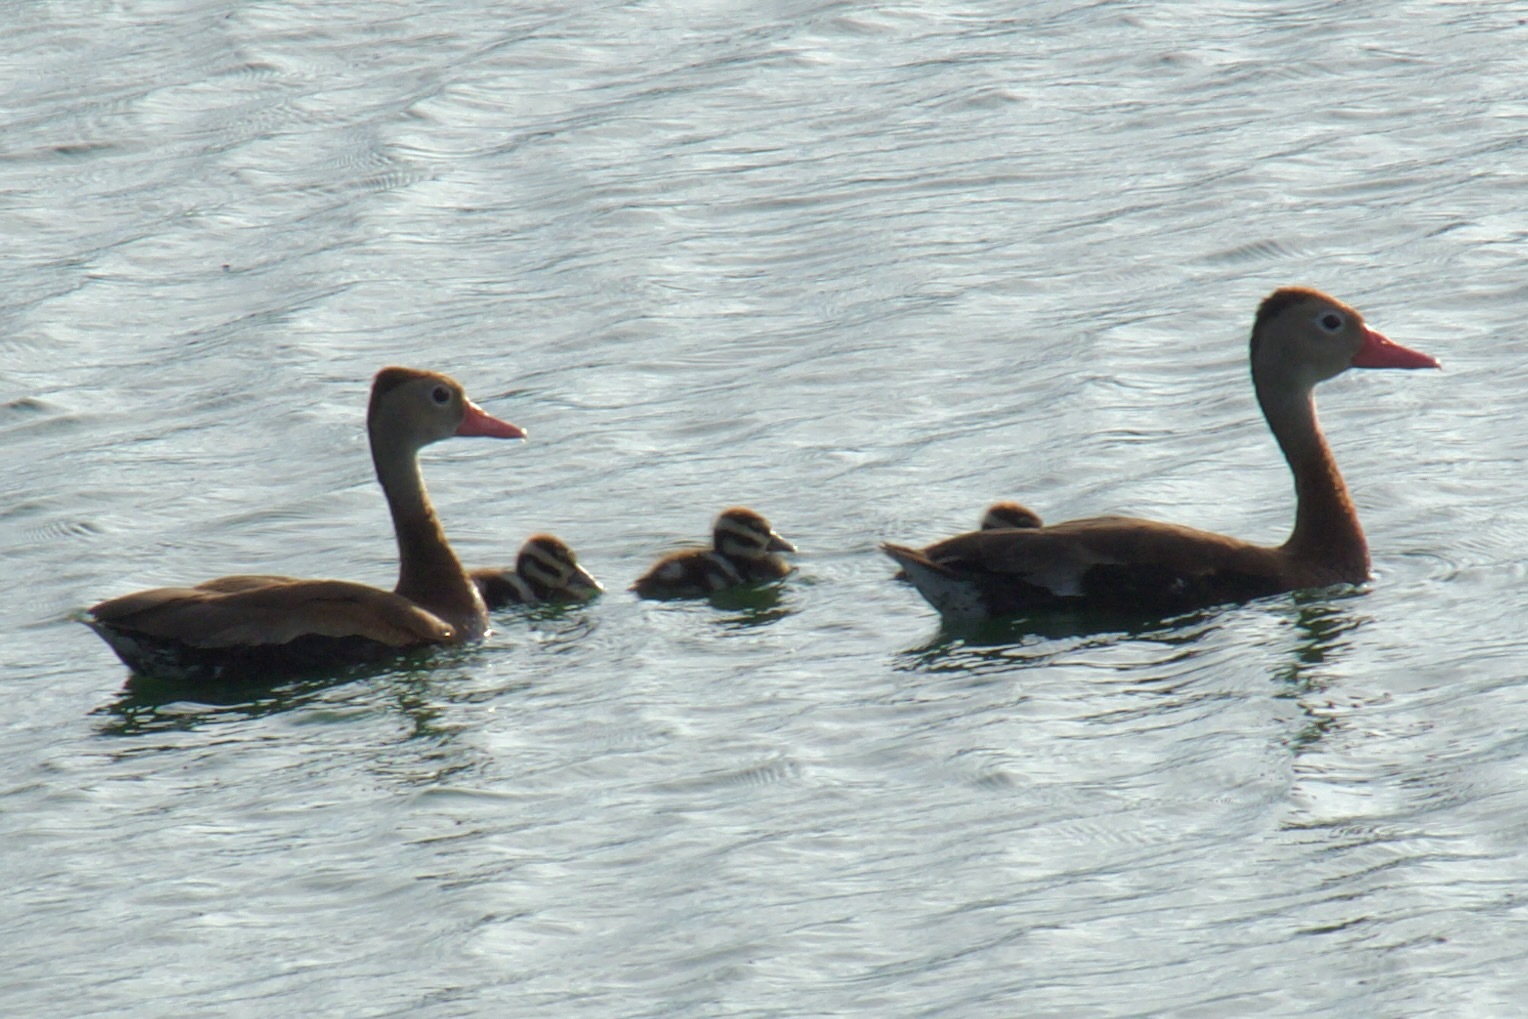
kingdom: Animalia
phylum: Chordata
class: Aves
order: Anseriformes
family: Anatidae
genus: Dendrocygna
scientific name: Dendrocygna autumnalis
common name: Black-bellied whistling duck
